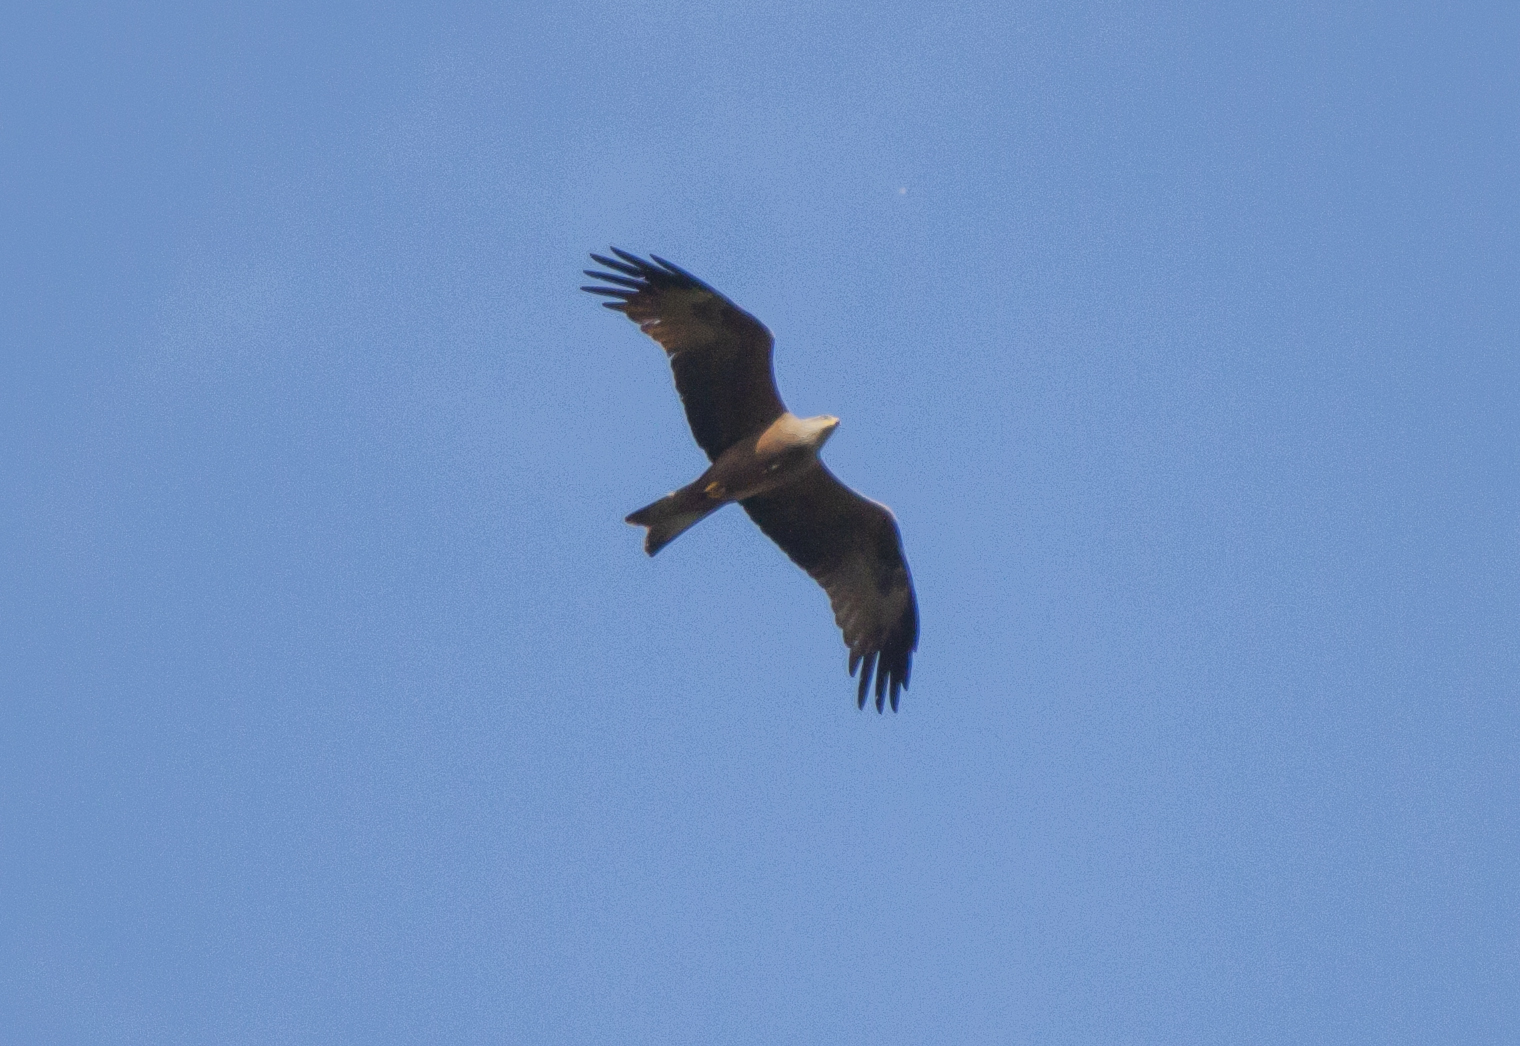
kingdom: Animalia
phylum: Chordata
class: Aves
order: Accipitriformes
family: Accipitridae
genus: Milvus
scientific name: Milvus migrans
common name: Black kite
